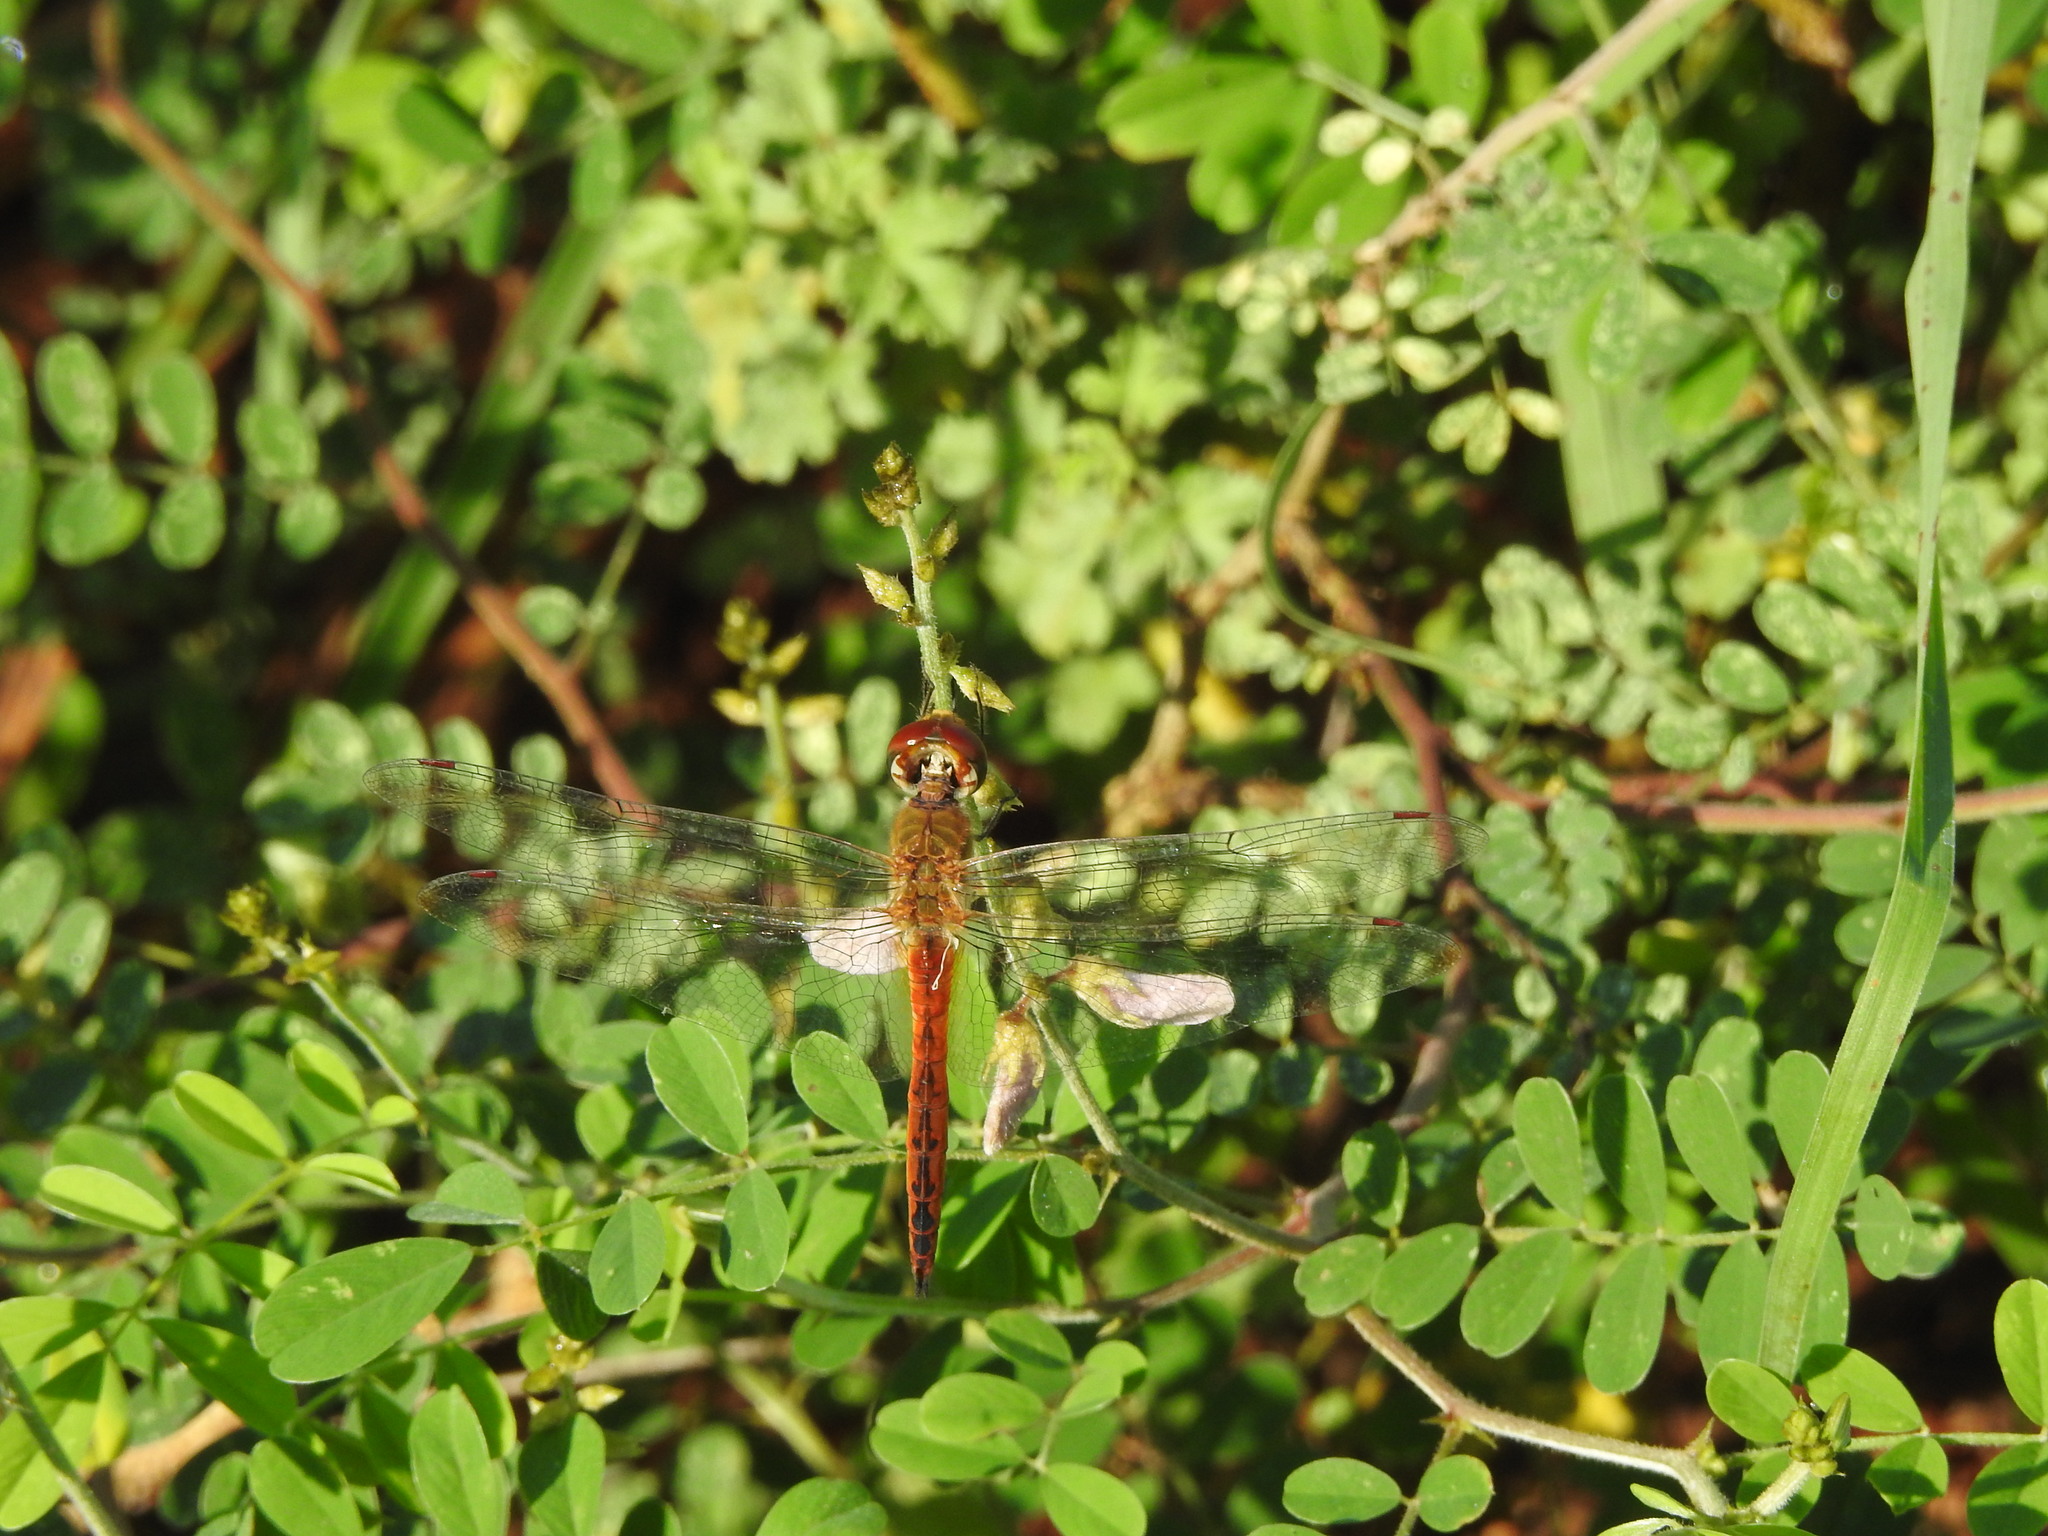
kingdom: Animalia
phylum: Arthropoda
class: Insecta
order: Odonata
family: Libellulidae
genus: Pantala
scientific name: Pantala flavescens
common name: Wandering glider
